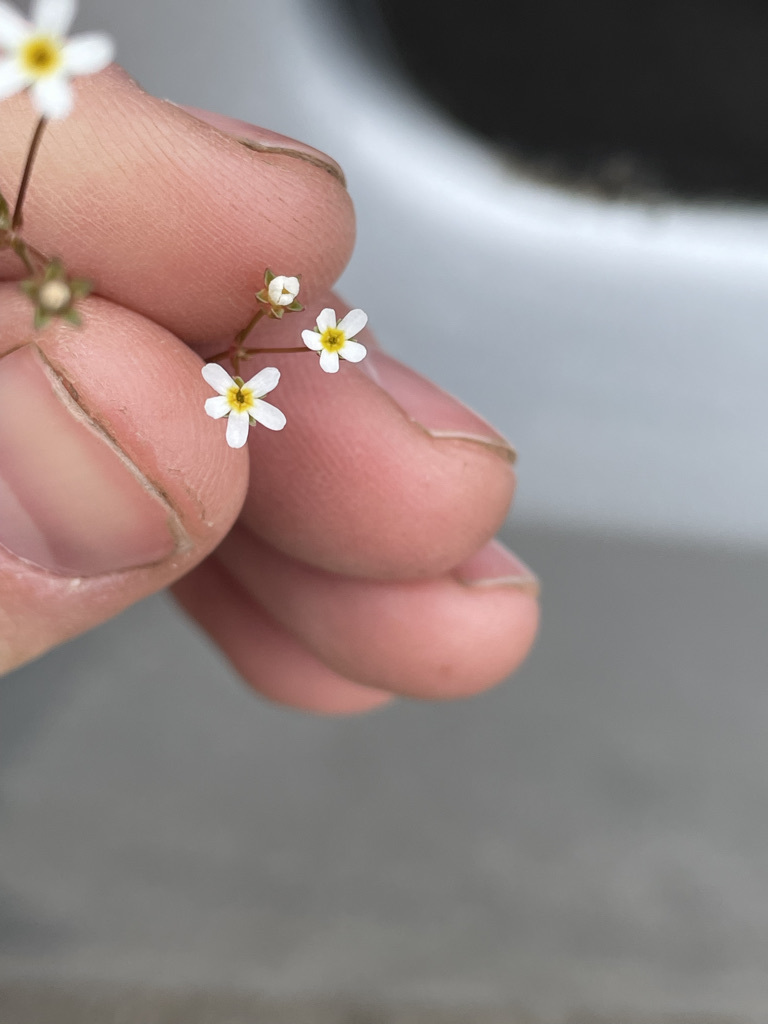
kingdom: Plantae
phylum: Tracheophyta
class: Magnoliopsida
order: Ericales
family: Primulaceae
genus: Androsace
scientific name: Androsace septentrionalis
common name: Hairy northern fairy-candelabra
